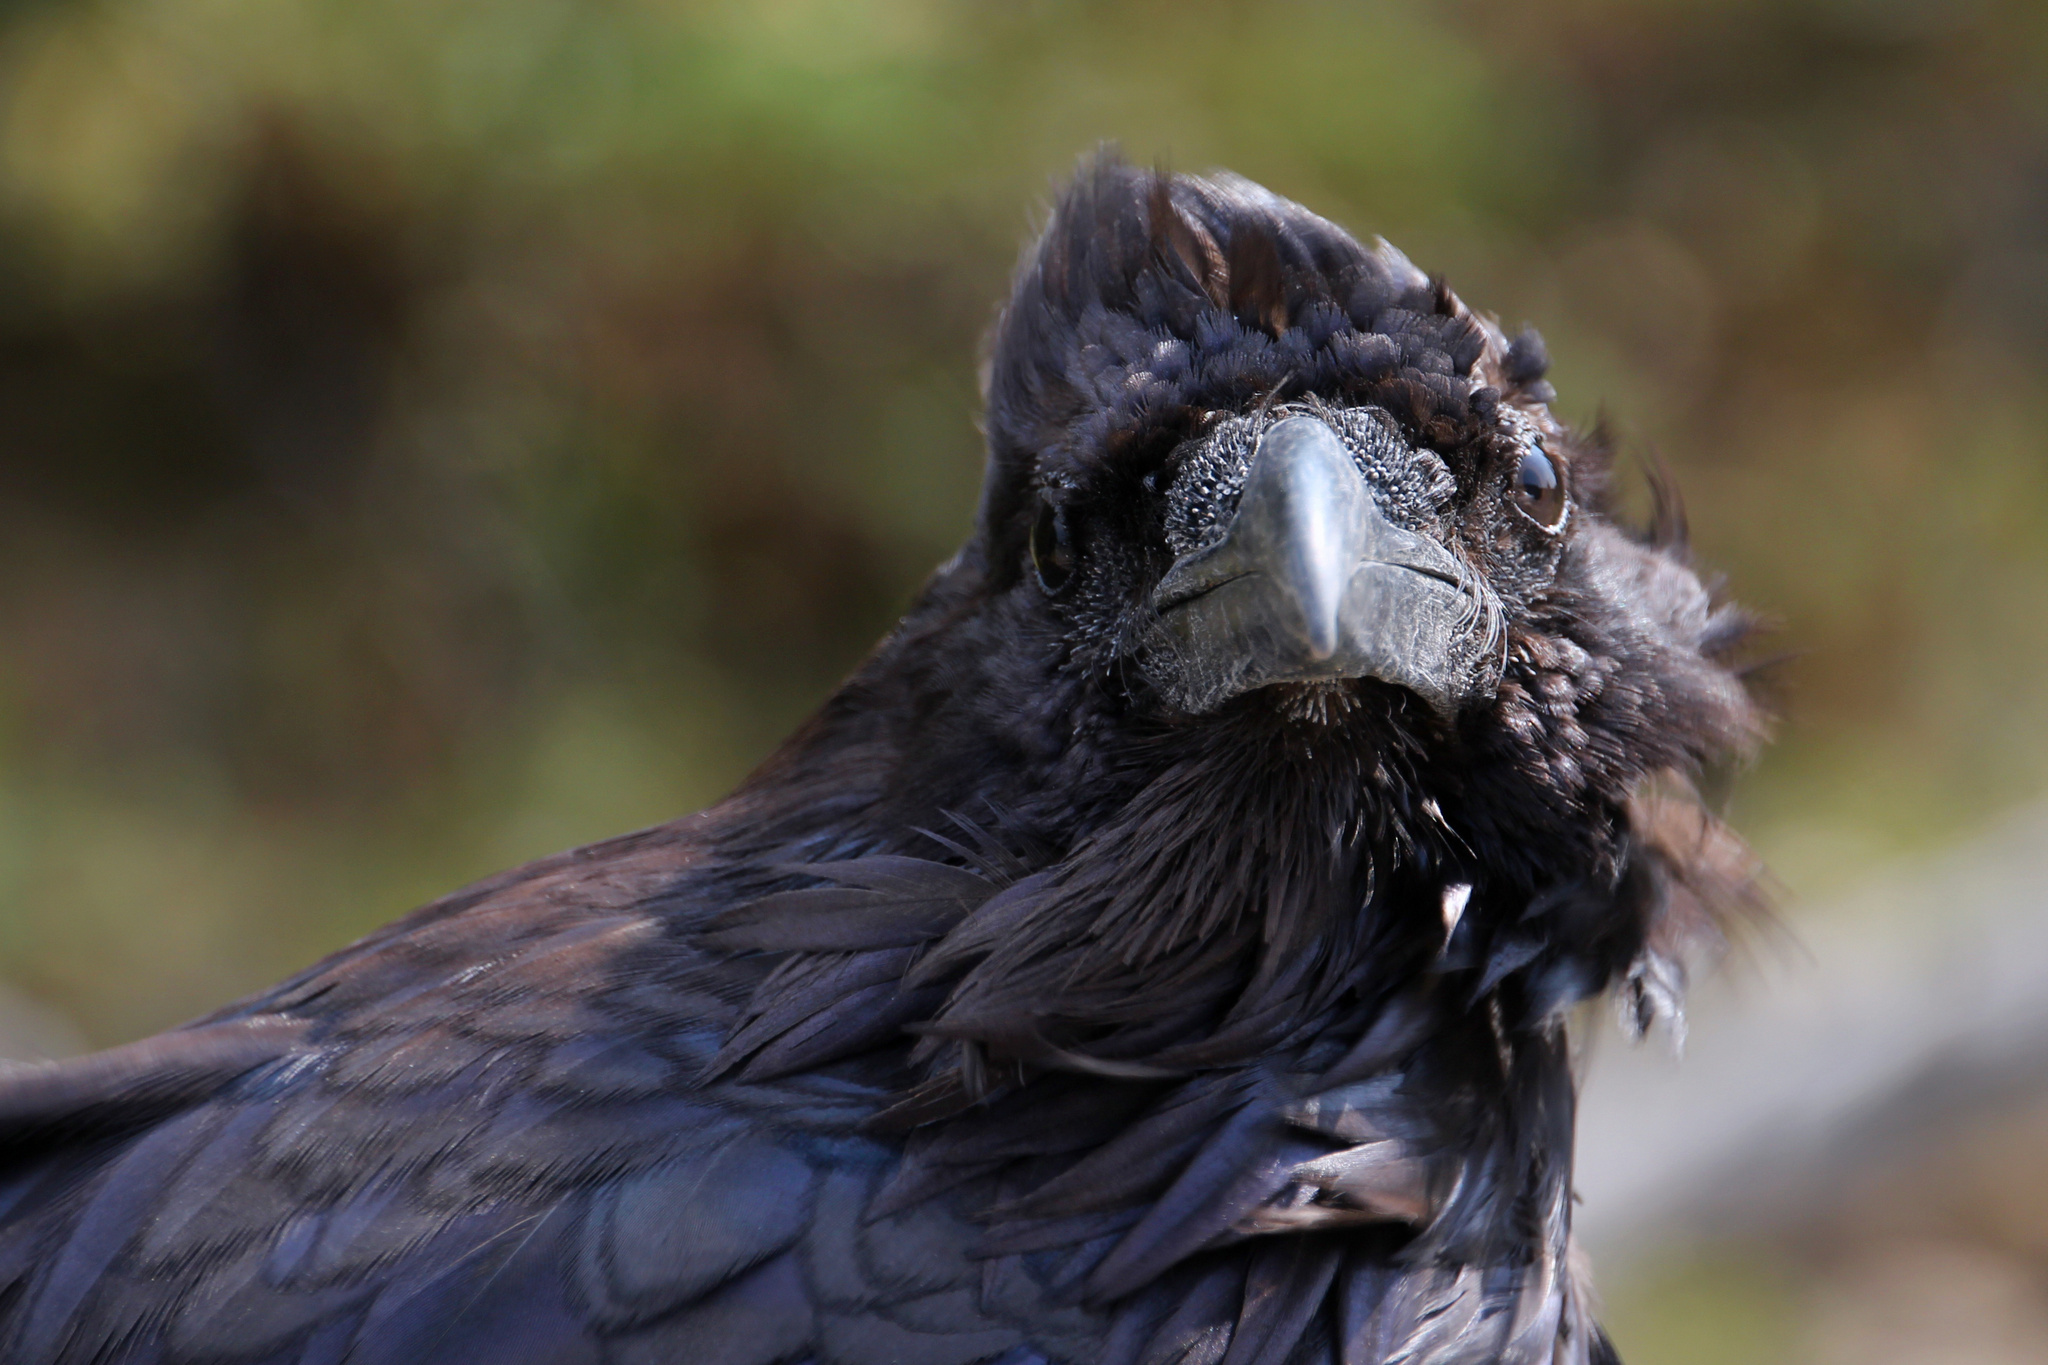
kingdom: Animalia
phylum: Chordata
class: Aves
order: Passeriformes
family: Corvidae
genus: Corvus
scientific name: Corvus corax
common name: Common raven
